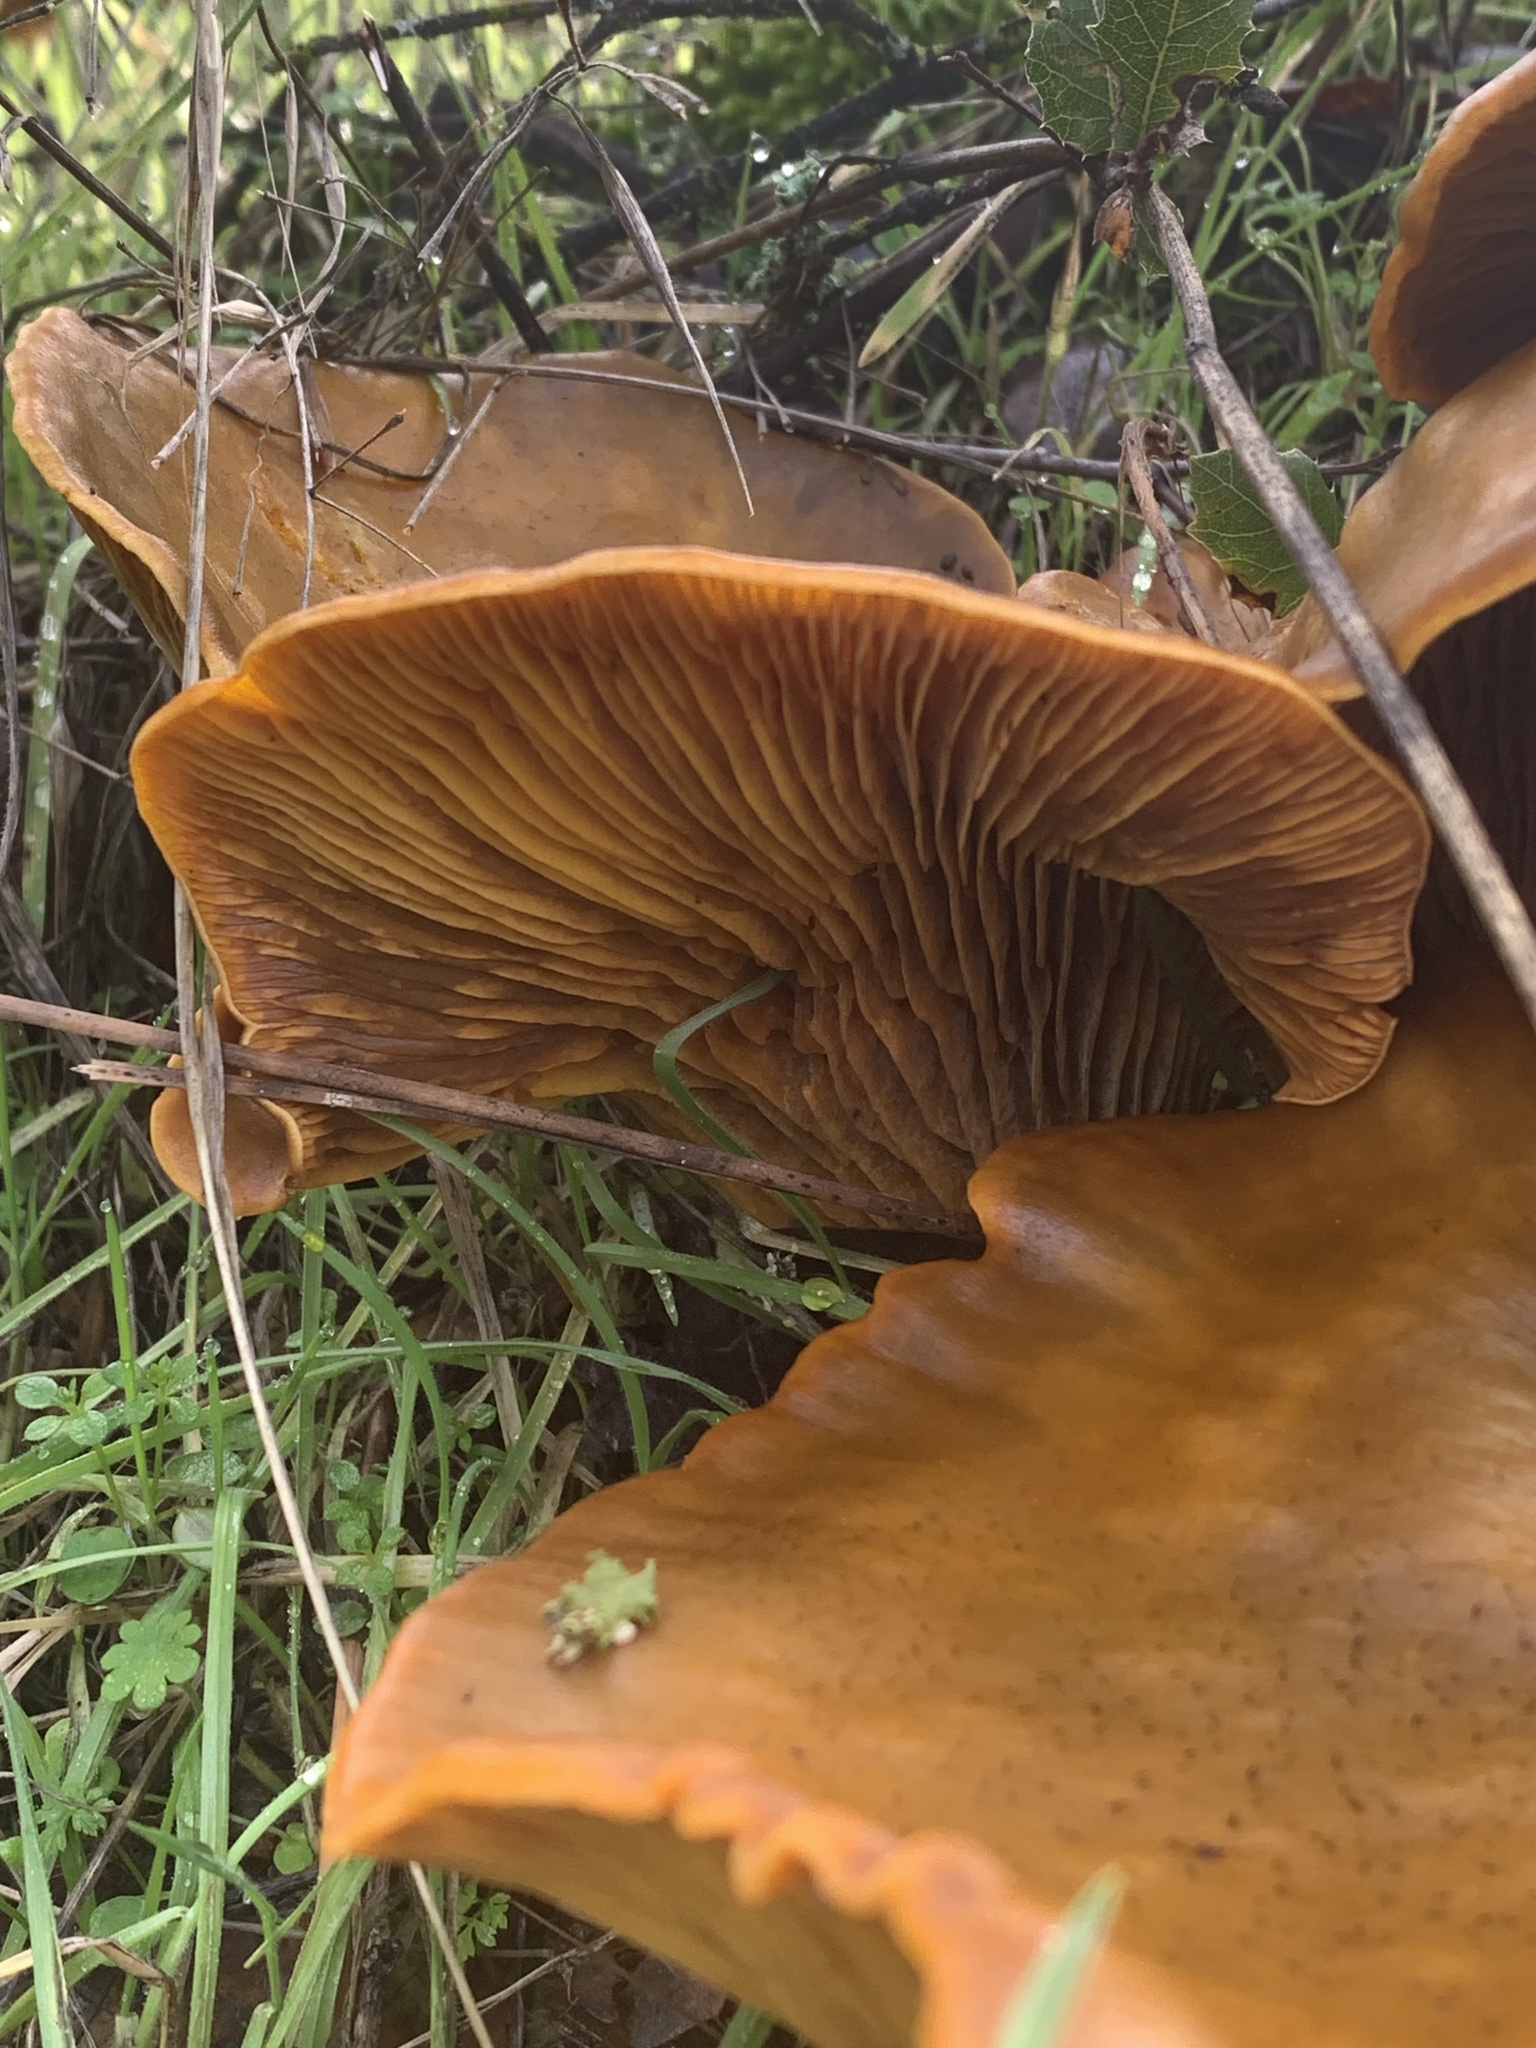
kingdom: Fungi
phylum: Basidiomycota
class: Agaricomycetes
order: Agaricales
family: Omphalotaceae
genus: Omphalotus
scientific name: Omphalotus olivascens
